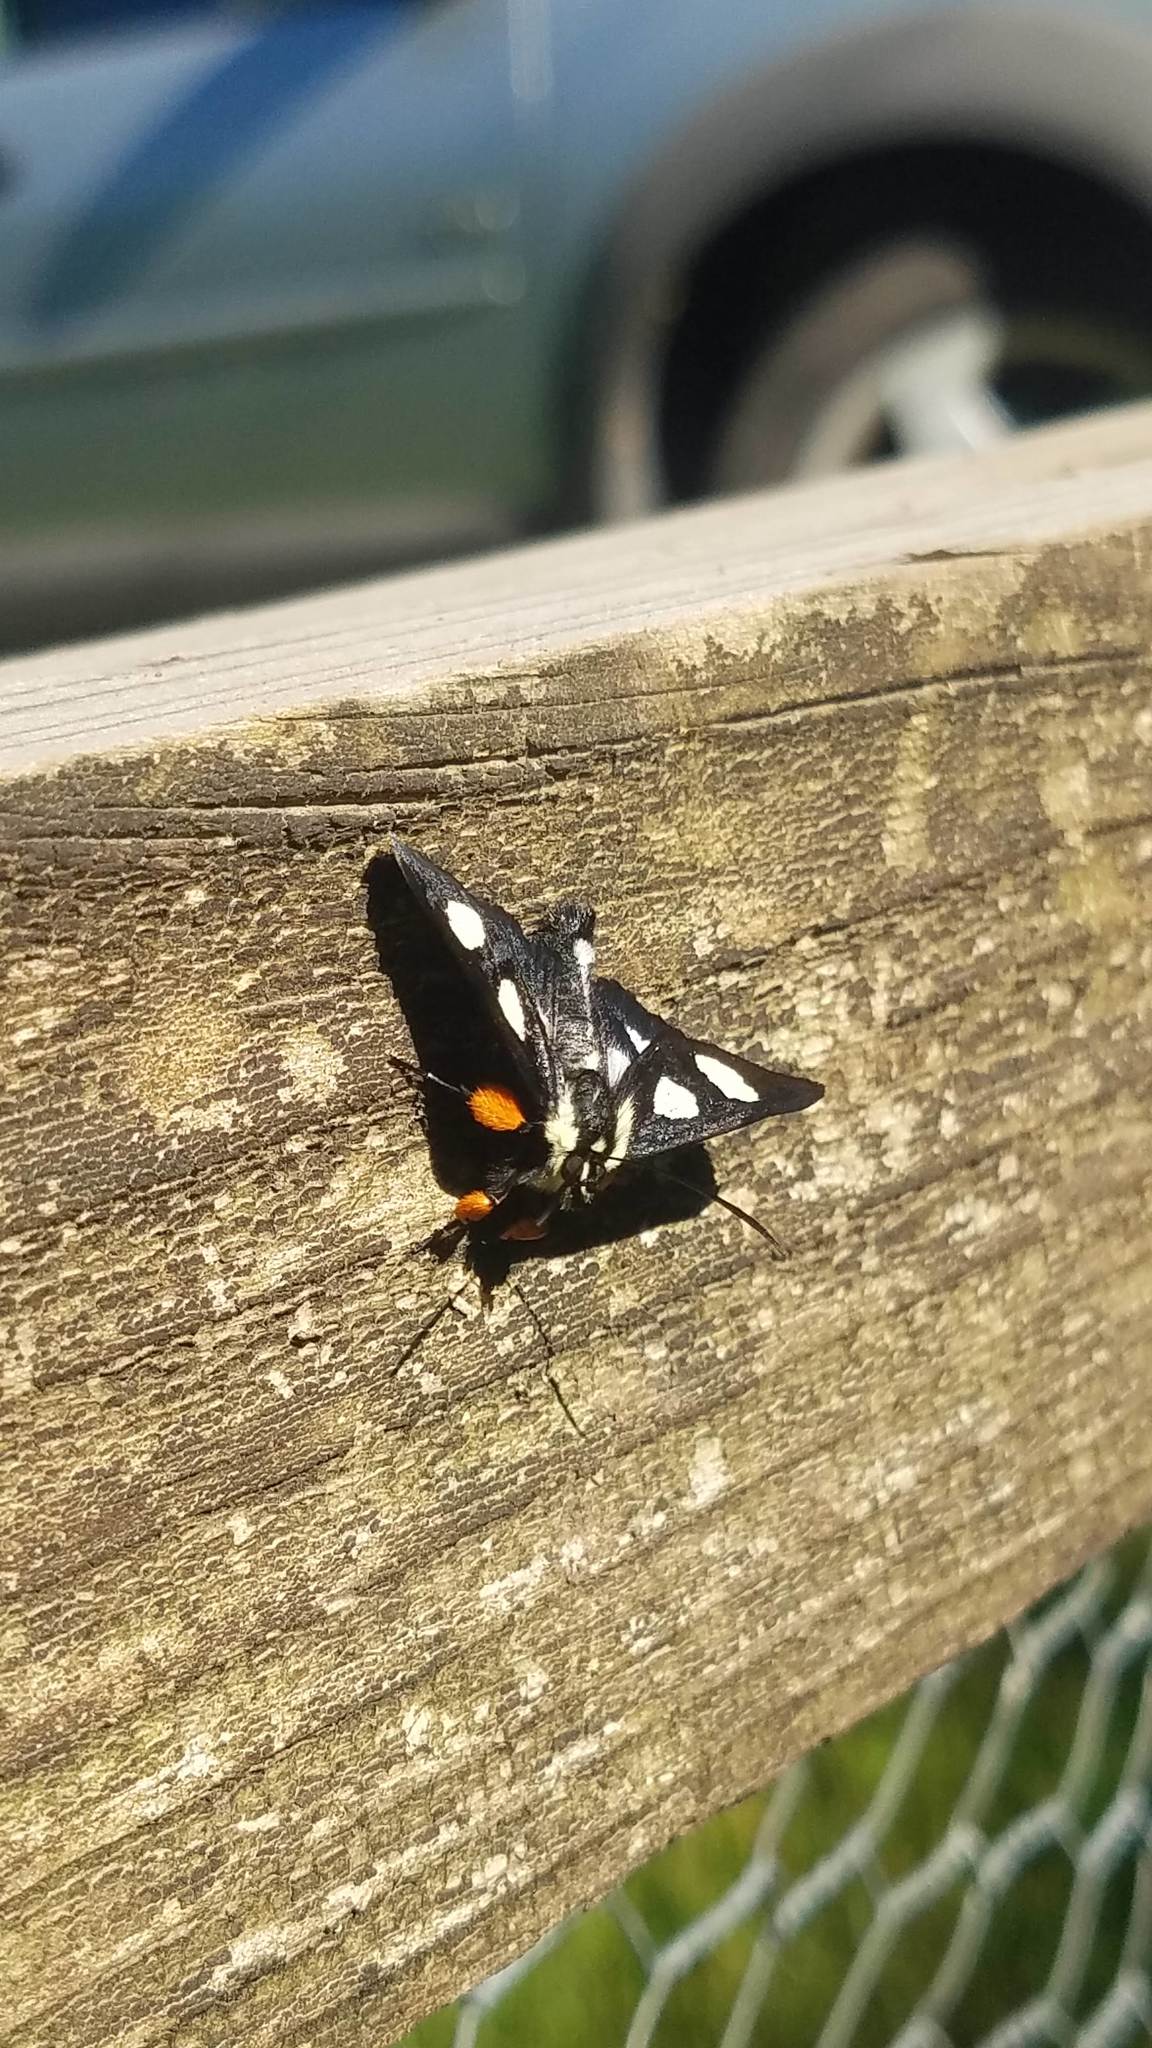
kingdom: Animalia
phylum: Arthropoda
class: Insecta
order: Lepidoptera
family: Noctuidae
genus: Alypia
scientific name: Alypia octomaculata
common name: Eight-spotted forester
